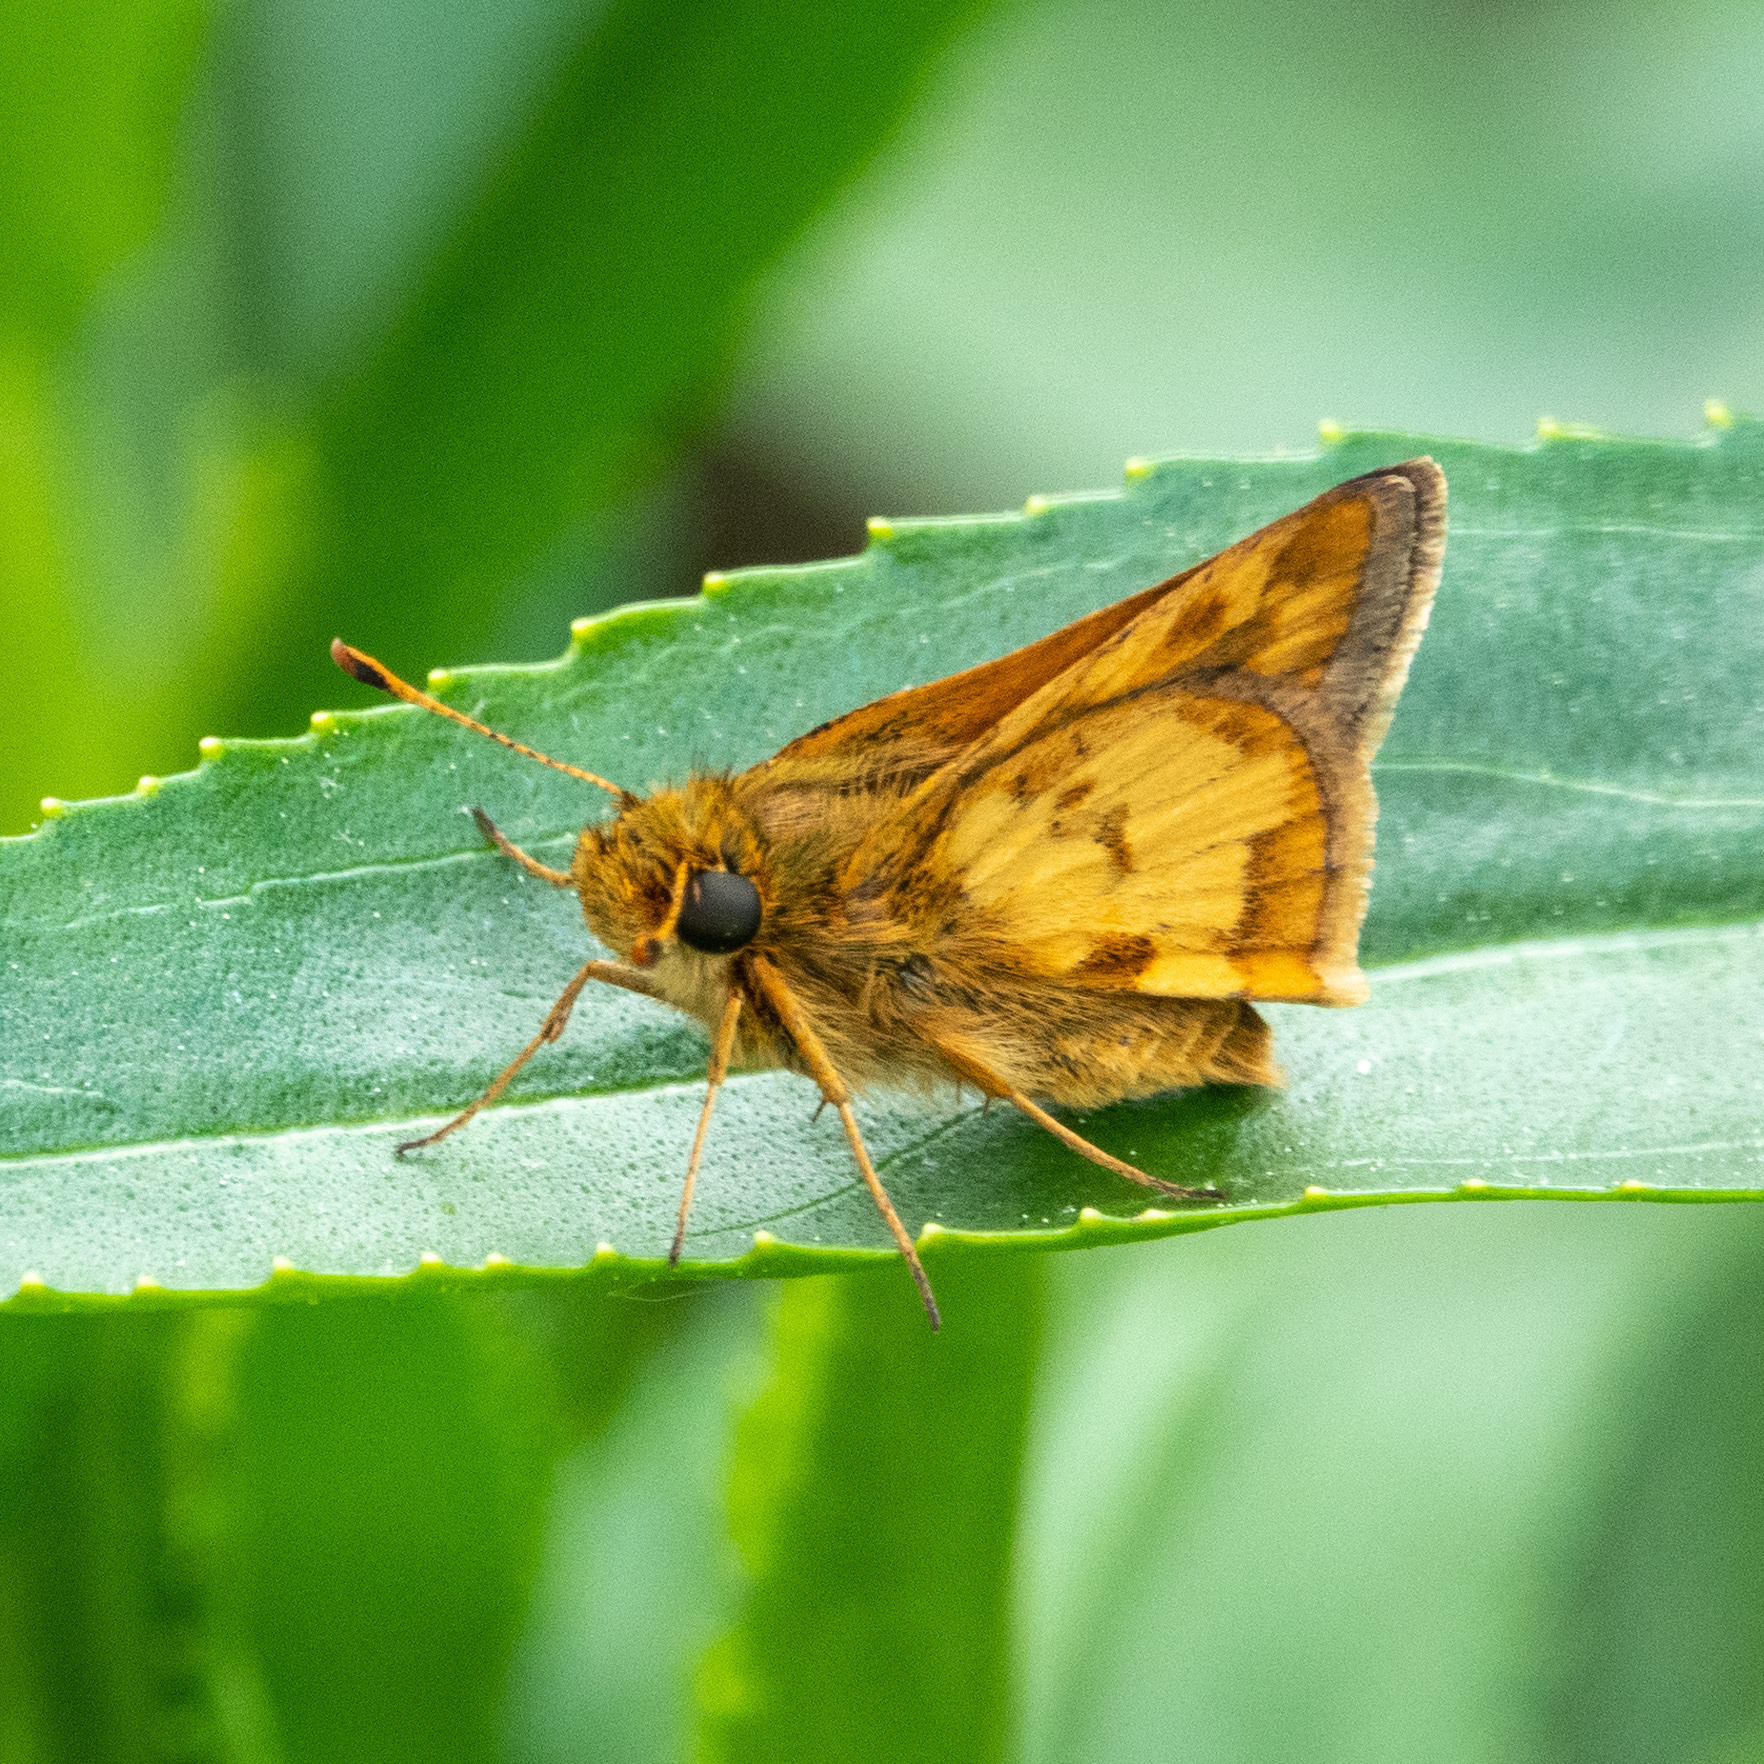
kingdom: Animalia
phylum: Arthropoda
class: Insecta
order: Lepidoptera
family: Hesperiidae
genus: Polites
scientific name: Polites coras
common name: Peck's skipper
